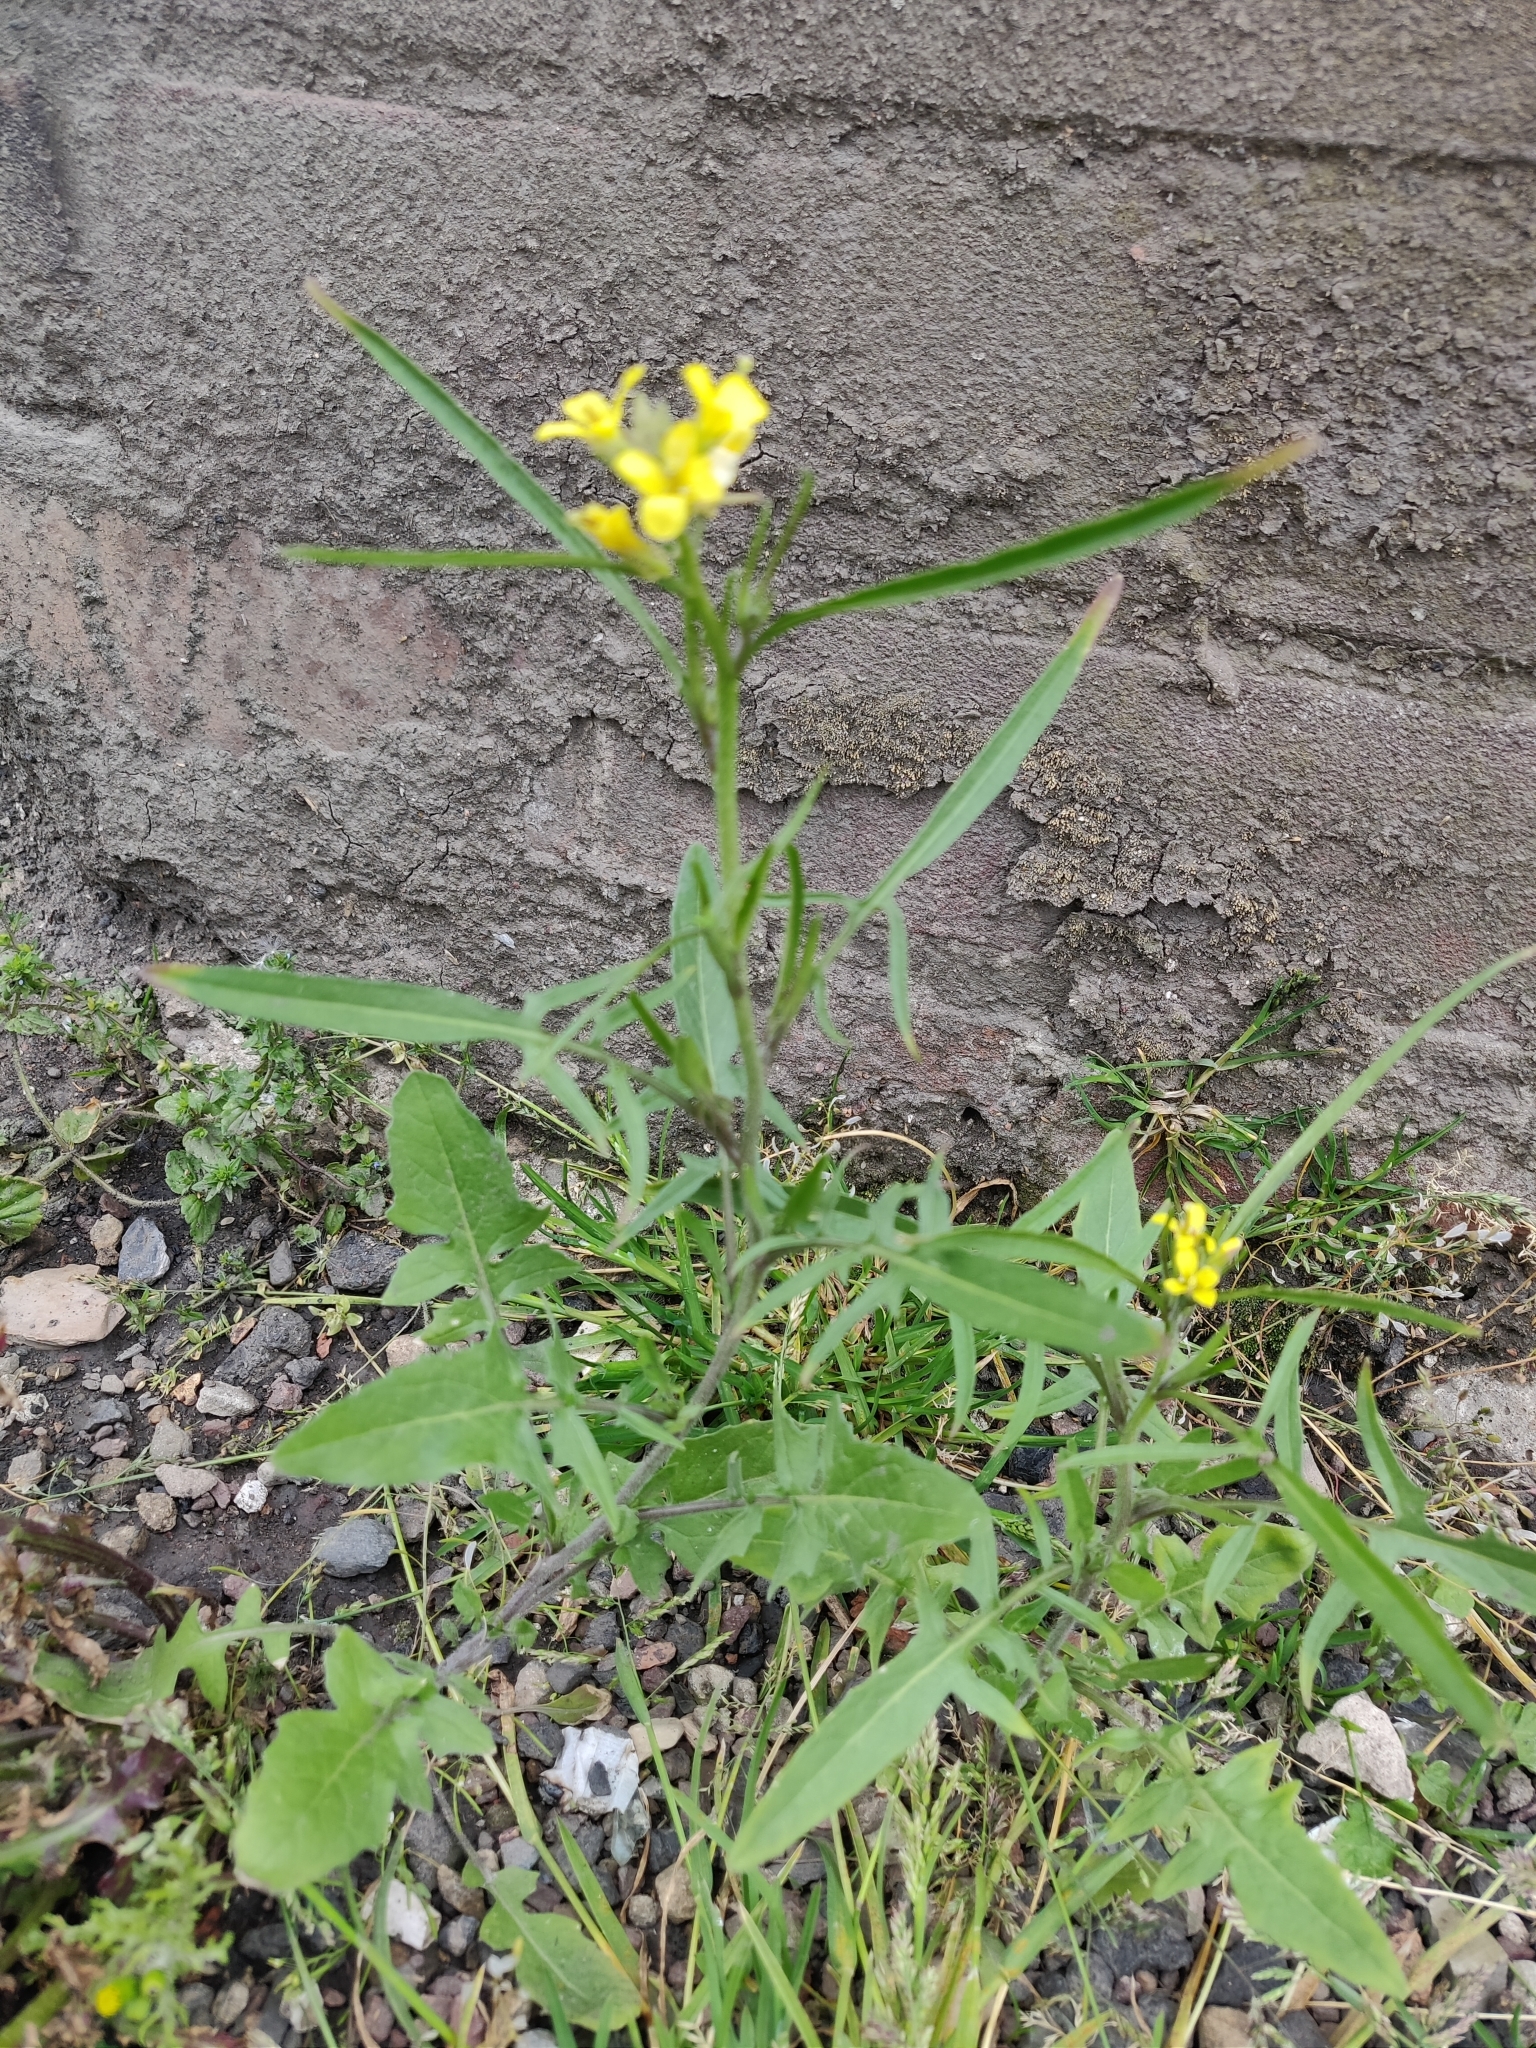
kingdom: Plantae
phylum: Tracheophyta
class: Magnoliopsida
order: Brassicales
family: Brassicaceae
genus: Sisymbrium
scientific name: Sisymbrium orientale
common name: Eastern rocket
